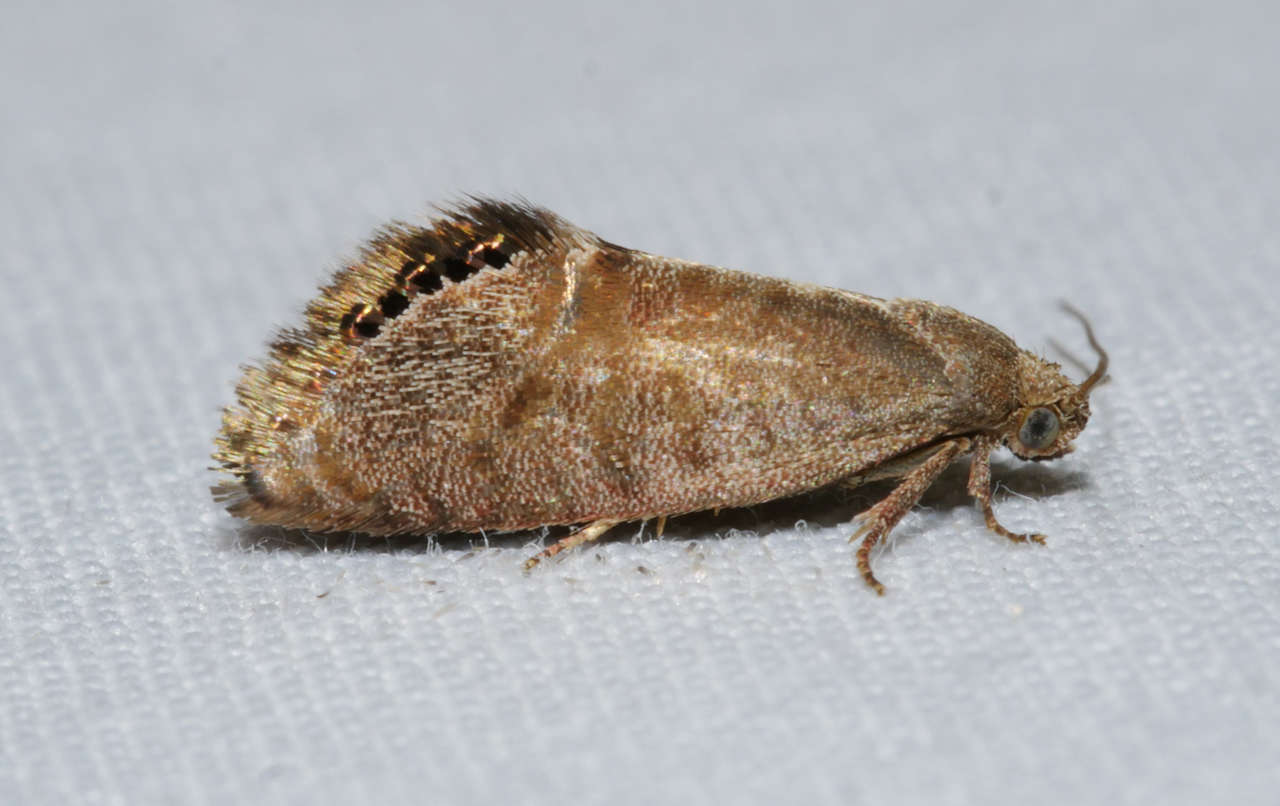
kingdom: Animalia
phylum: Arthropoda
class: Insecta
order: Lepidoptera
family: Depressariidae
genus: Eupselia
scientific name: Eupselia melanostrepta
